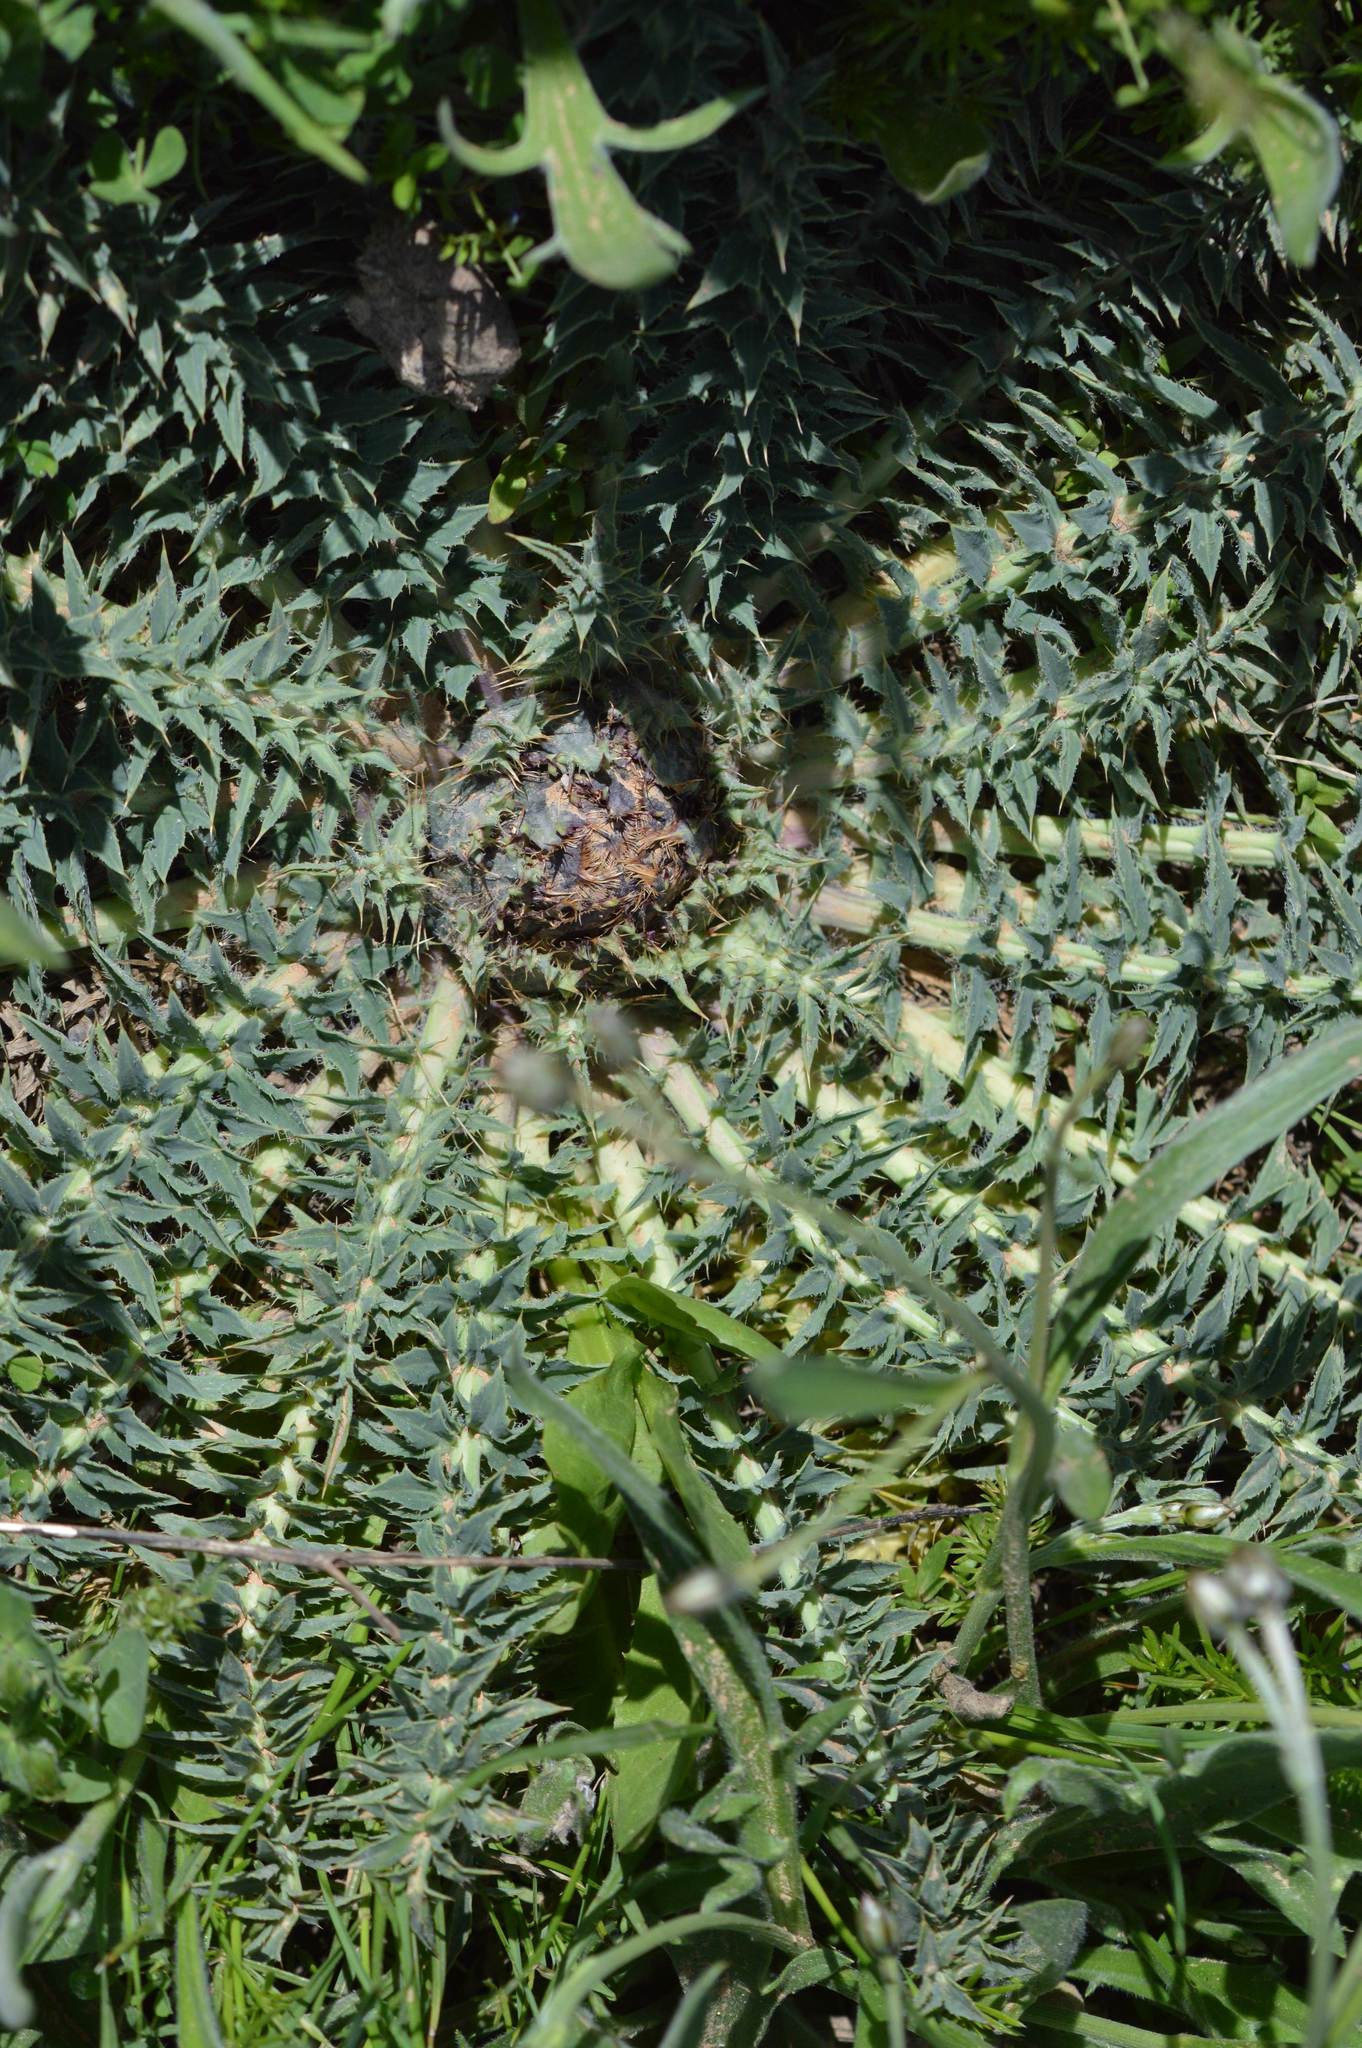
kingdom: Plantae
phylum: Tracheophyta
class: Magnoliopsida
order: Asterales
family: Asteraceae
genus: Carduncellus
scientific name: Carduncellus
